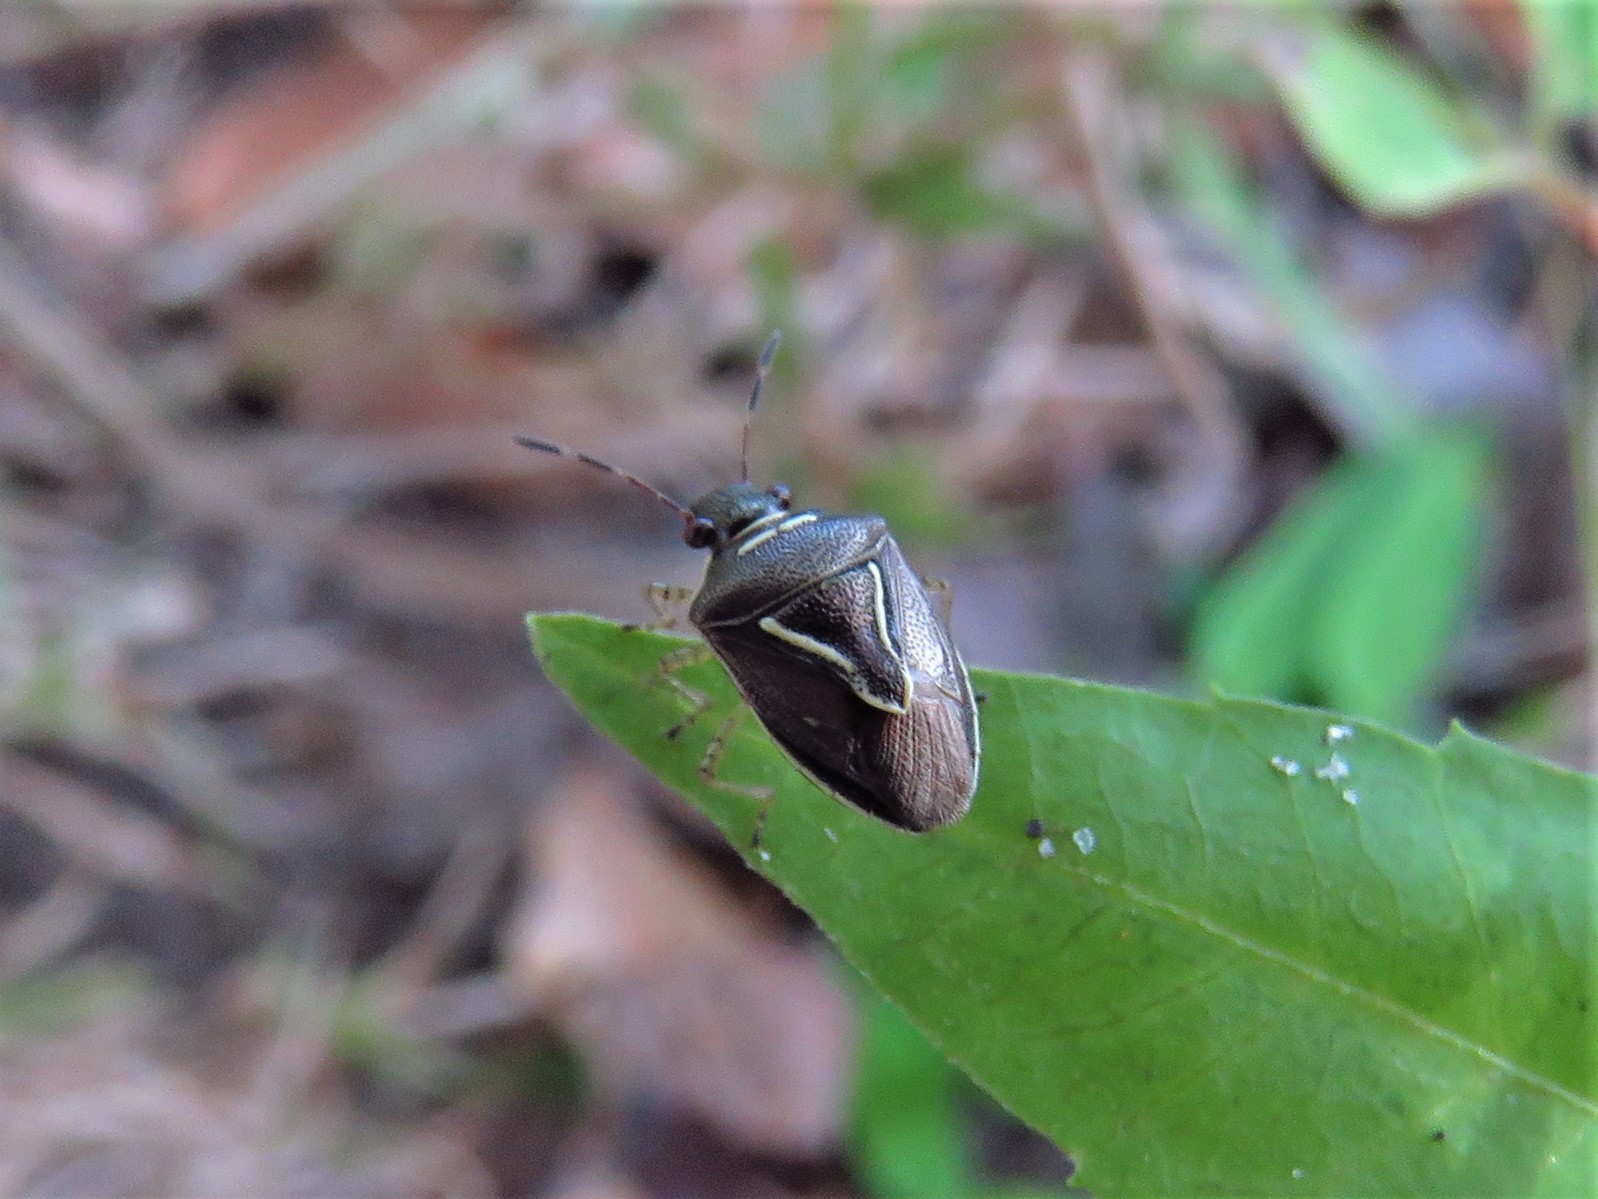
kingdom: Animalia
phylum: Arthropoda
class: Insecta
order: Hemiptera
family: Pentatomidae
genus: Mormidea
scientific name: Mormidea lugens
